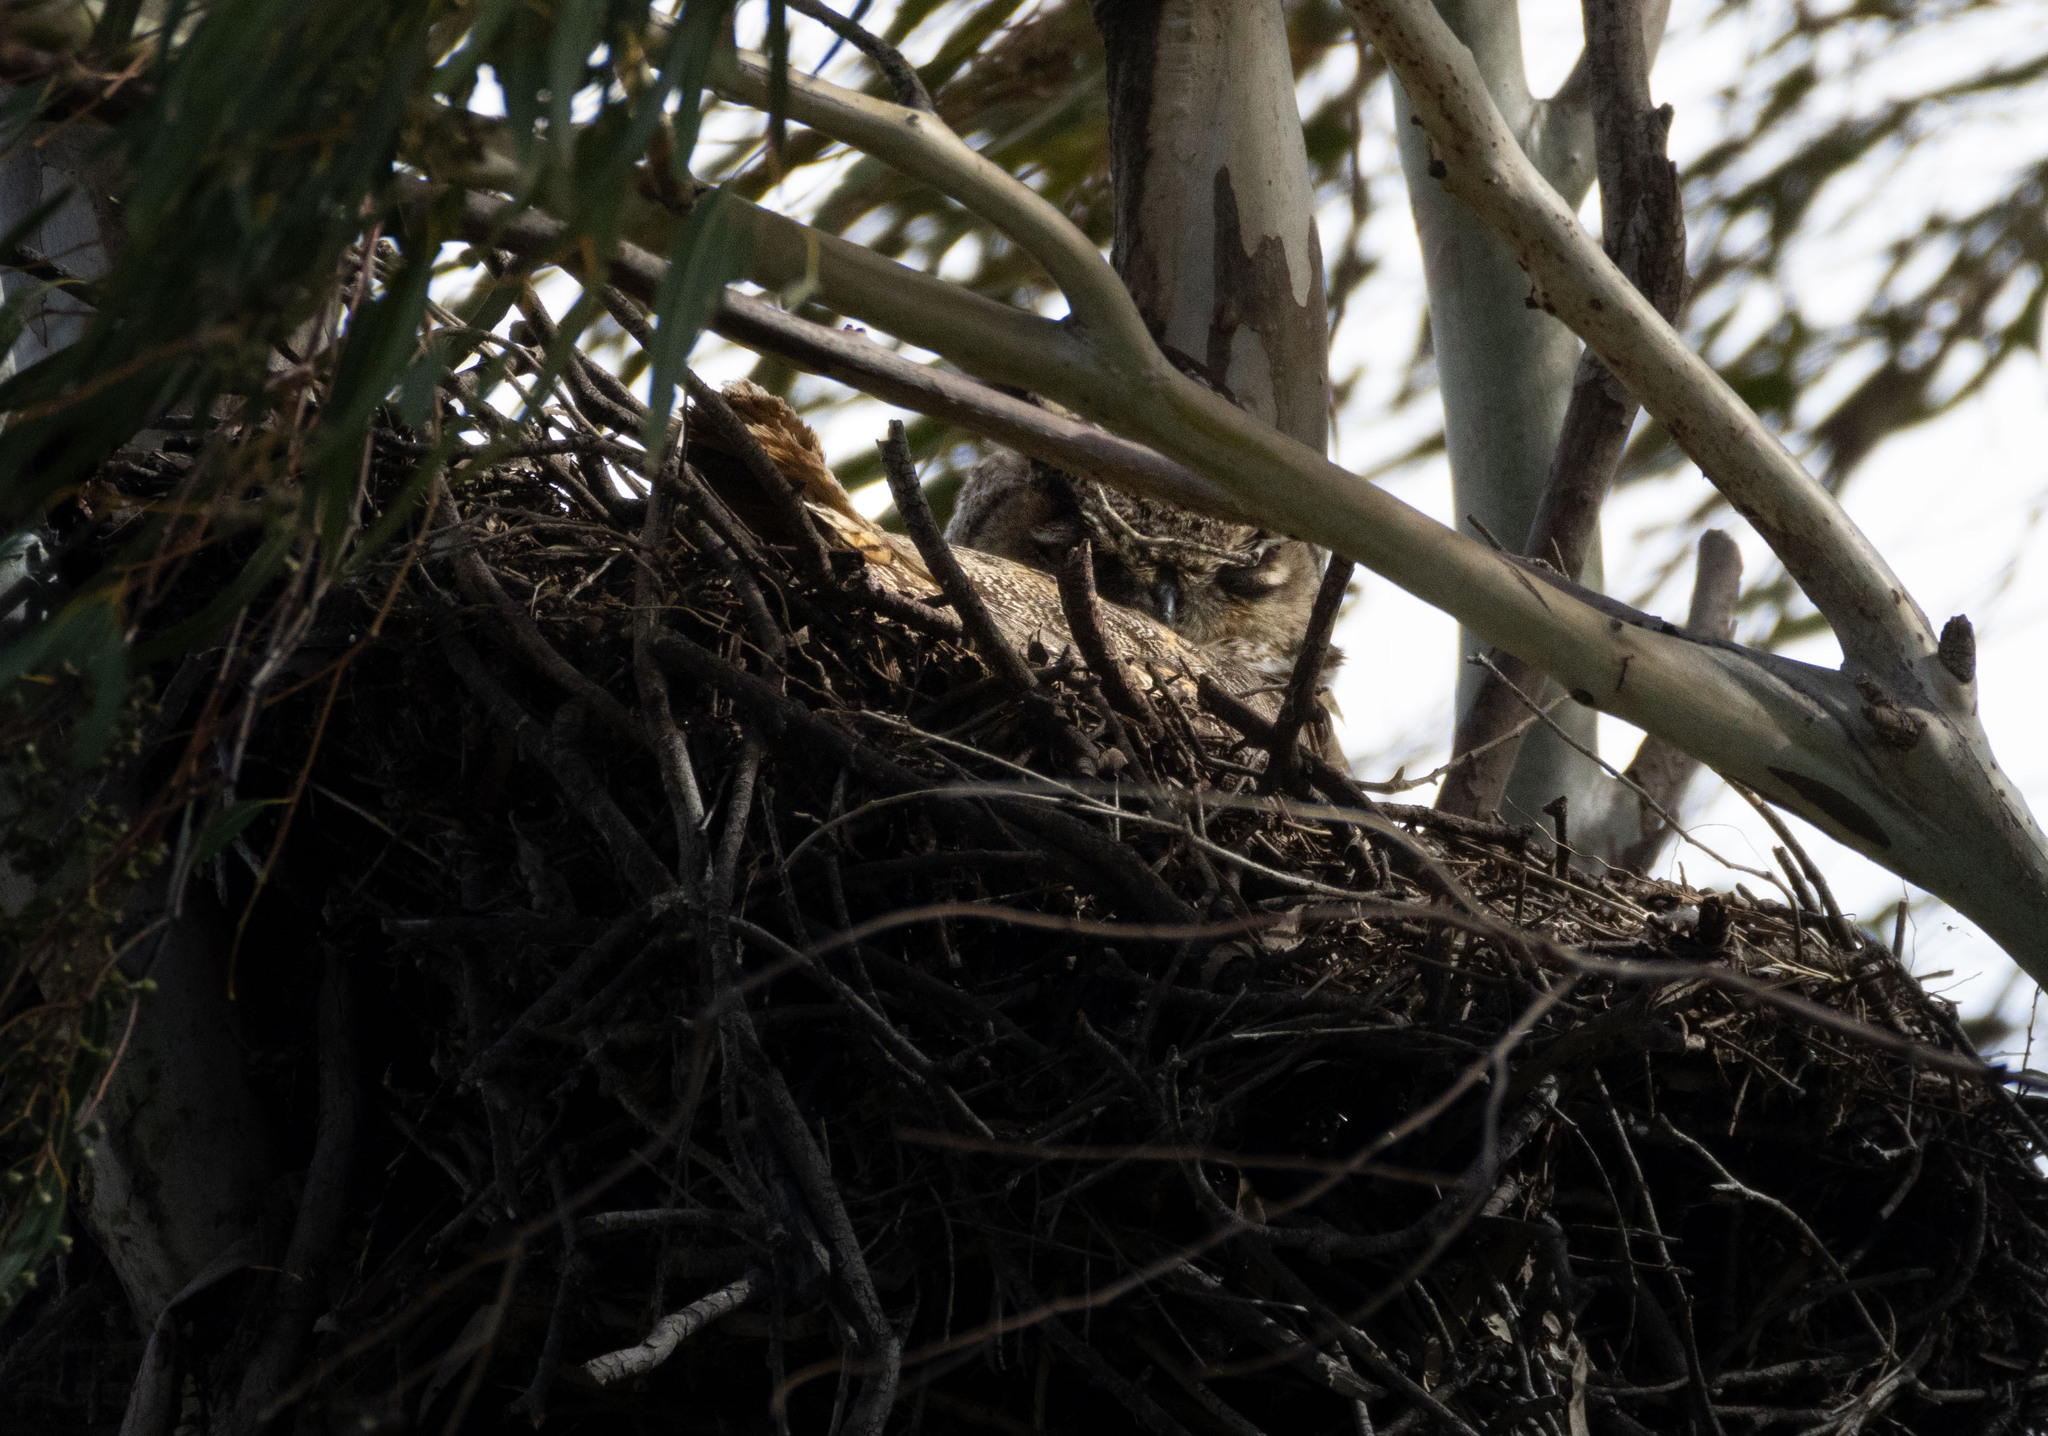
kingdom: Animalia
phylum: Chordata
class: Aves
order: Strigiformes
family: Strigidae
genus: Bubo
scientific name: Bubo virginianus
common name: Great horned owl
